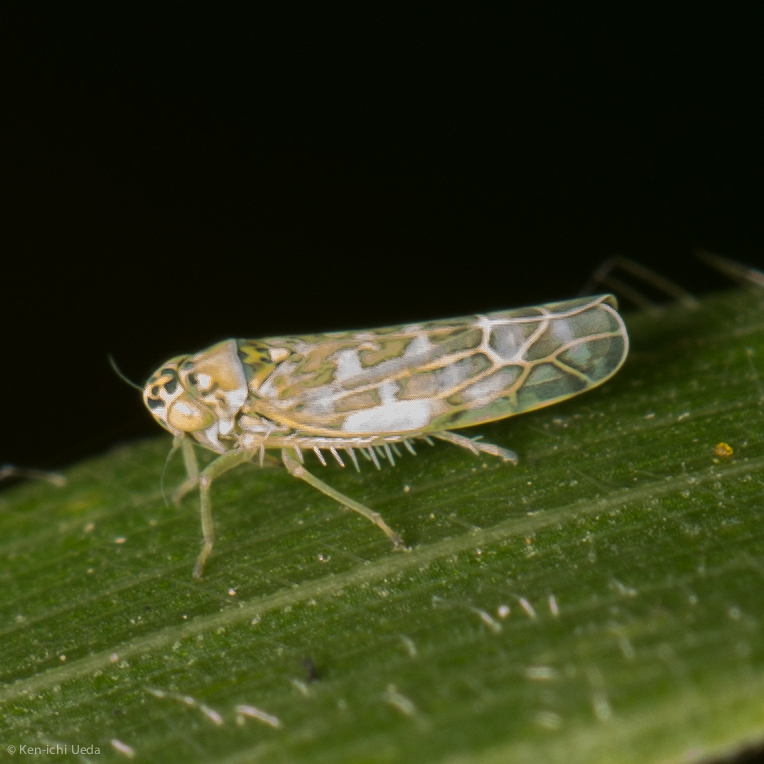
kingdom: Animalia
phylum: Arthropoda
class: Insecta
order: Hemiptera
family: Cicadellidae
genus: Eupteryx
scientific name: Eupteryx decemnotata
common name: Ligurian leafhopper
